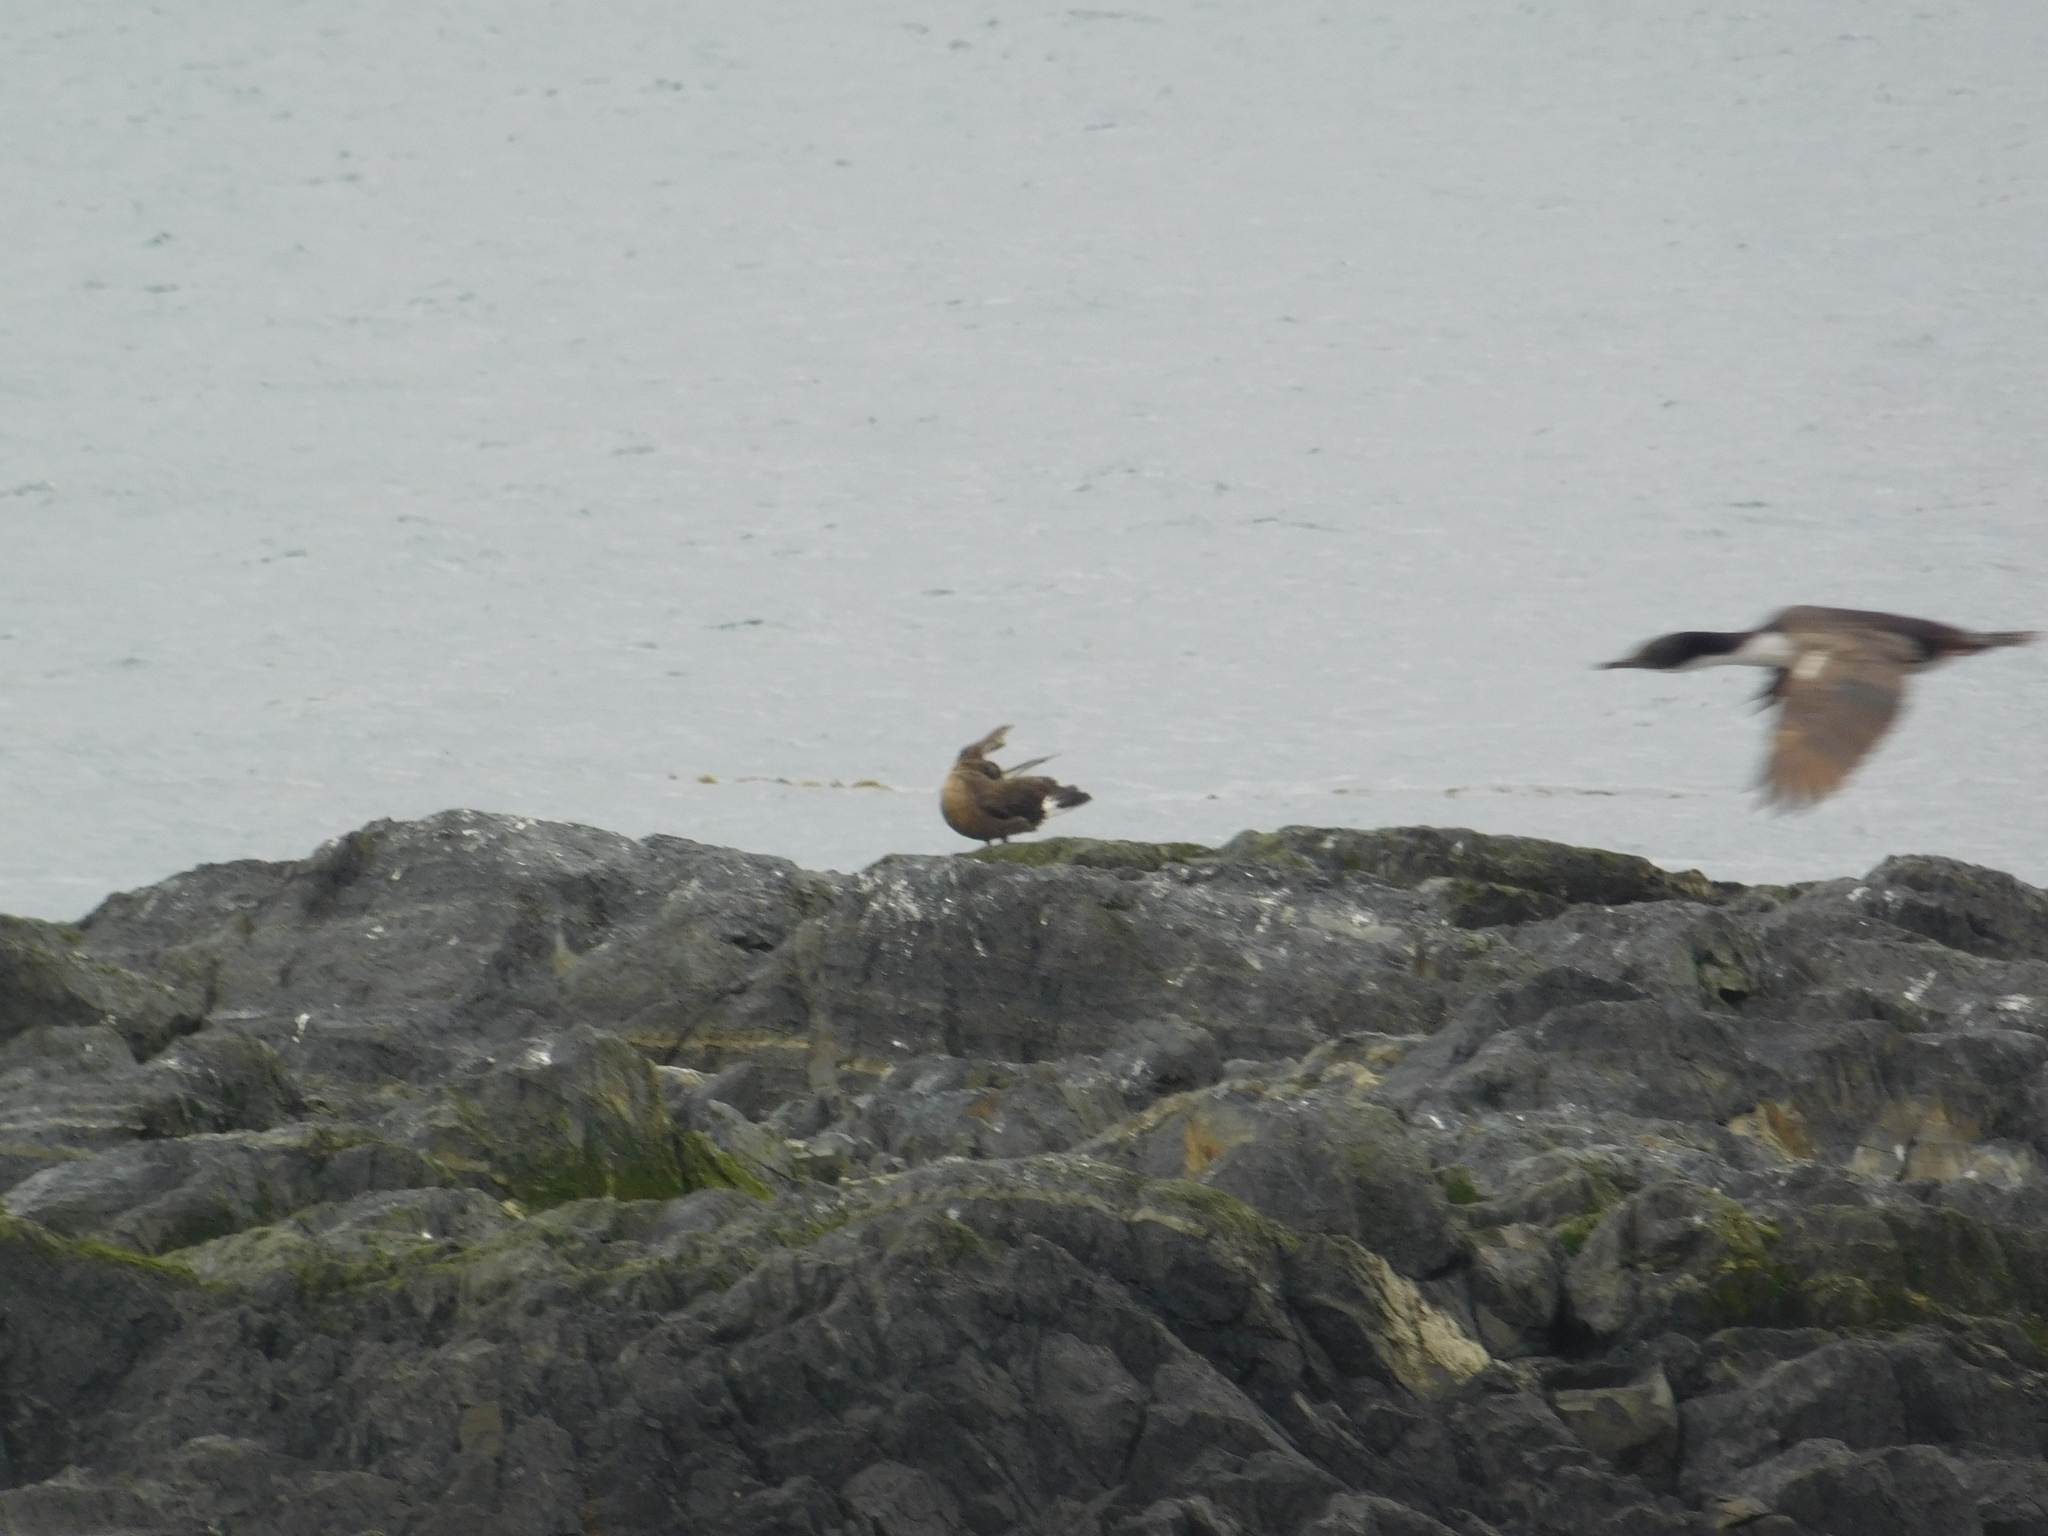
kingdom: Animalia
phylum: Chordata
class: Aves
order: Charadriiformes
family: Stercorariidae
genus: Stercorarius
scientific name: Stercorarius chilensis
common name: Chilean skua
